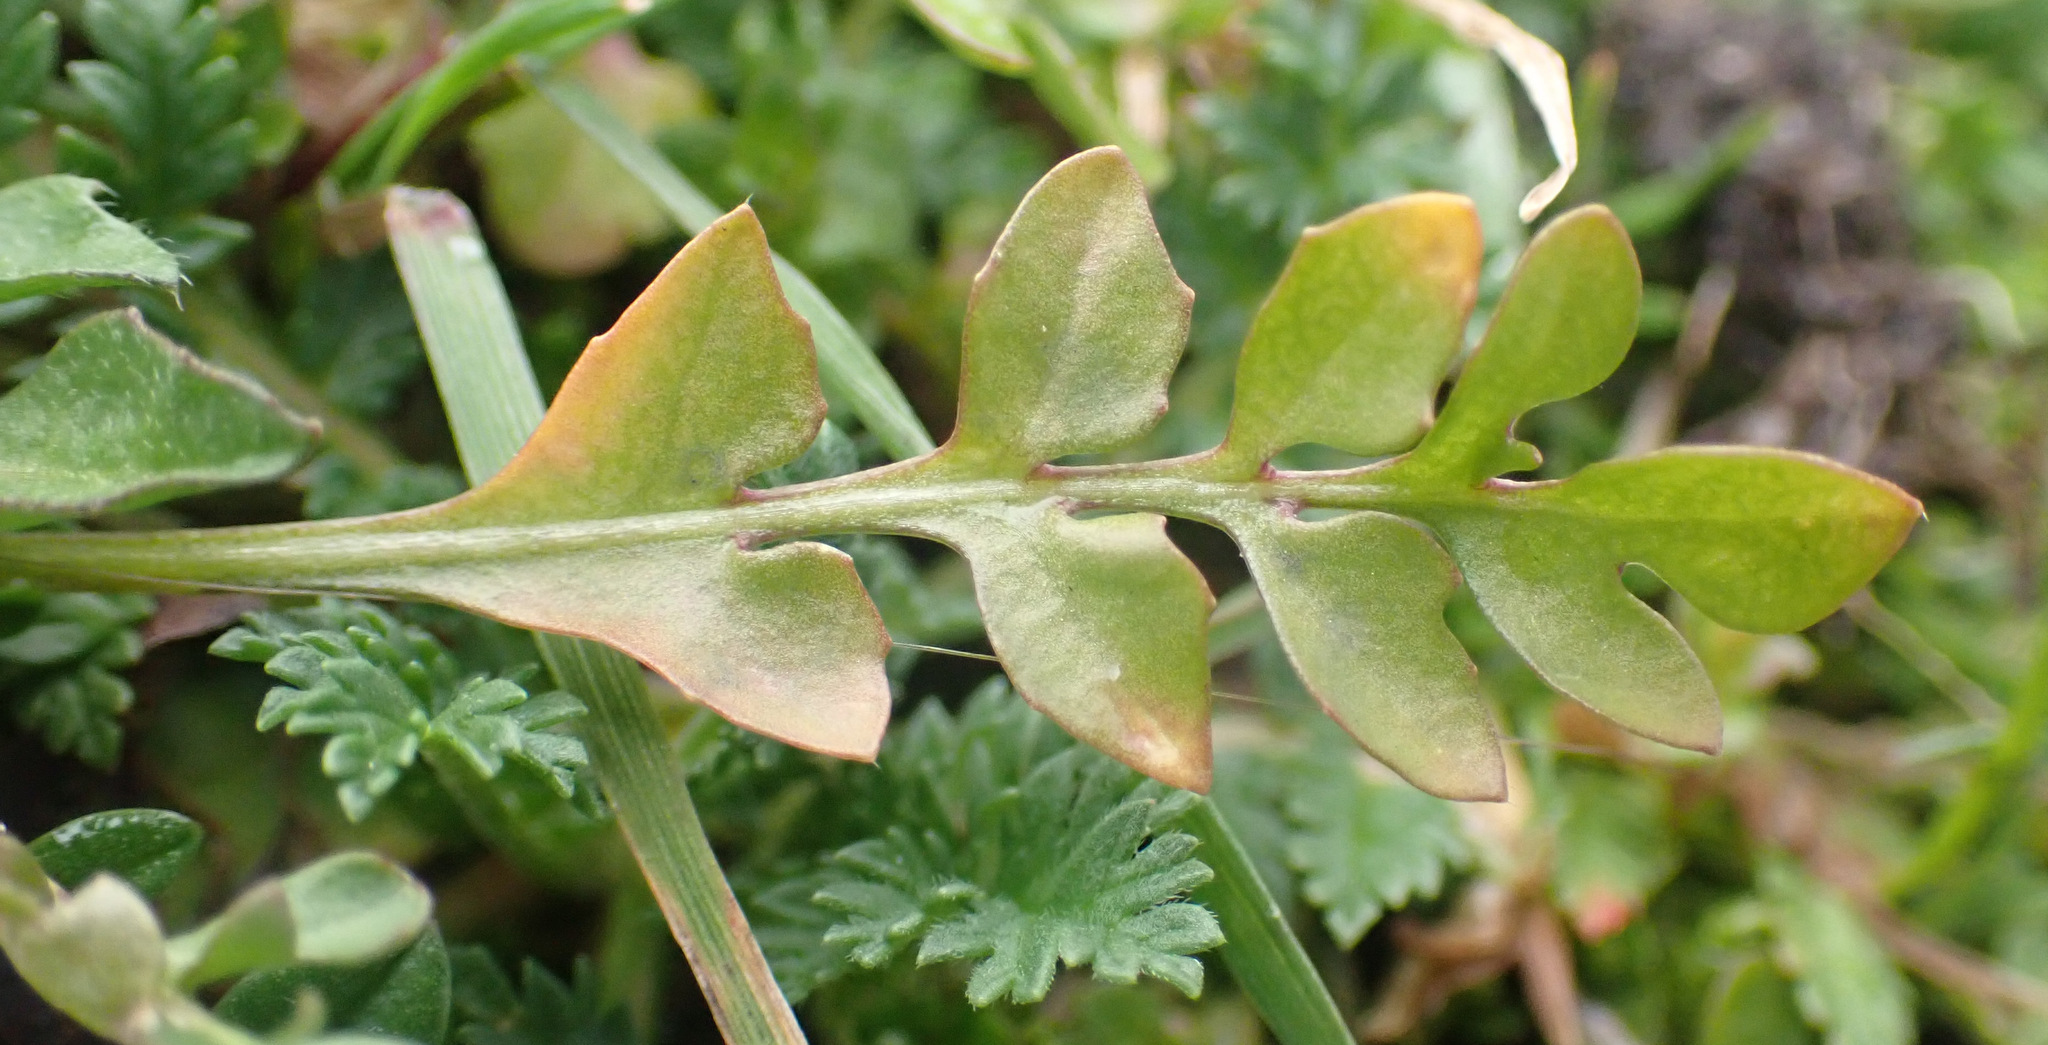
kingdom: Plantae
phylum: Tracheophyta
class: Magnoliopsida
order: Brassicales
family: Brassicaceae
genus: Capsella
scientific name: Capsella bursa-pastoris
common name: Shepherd's purse
